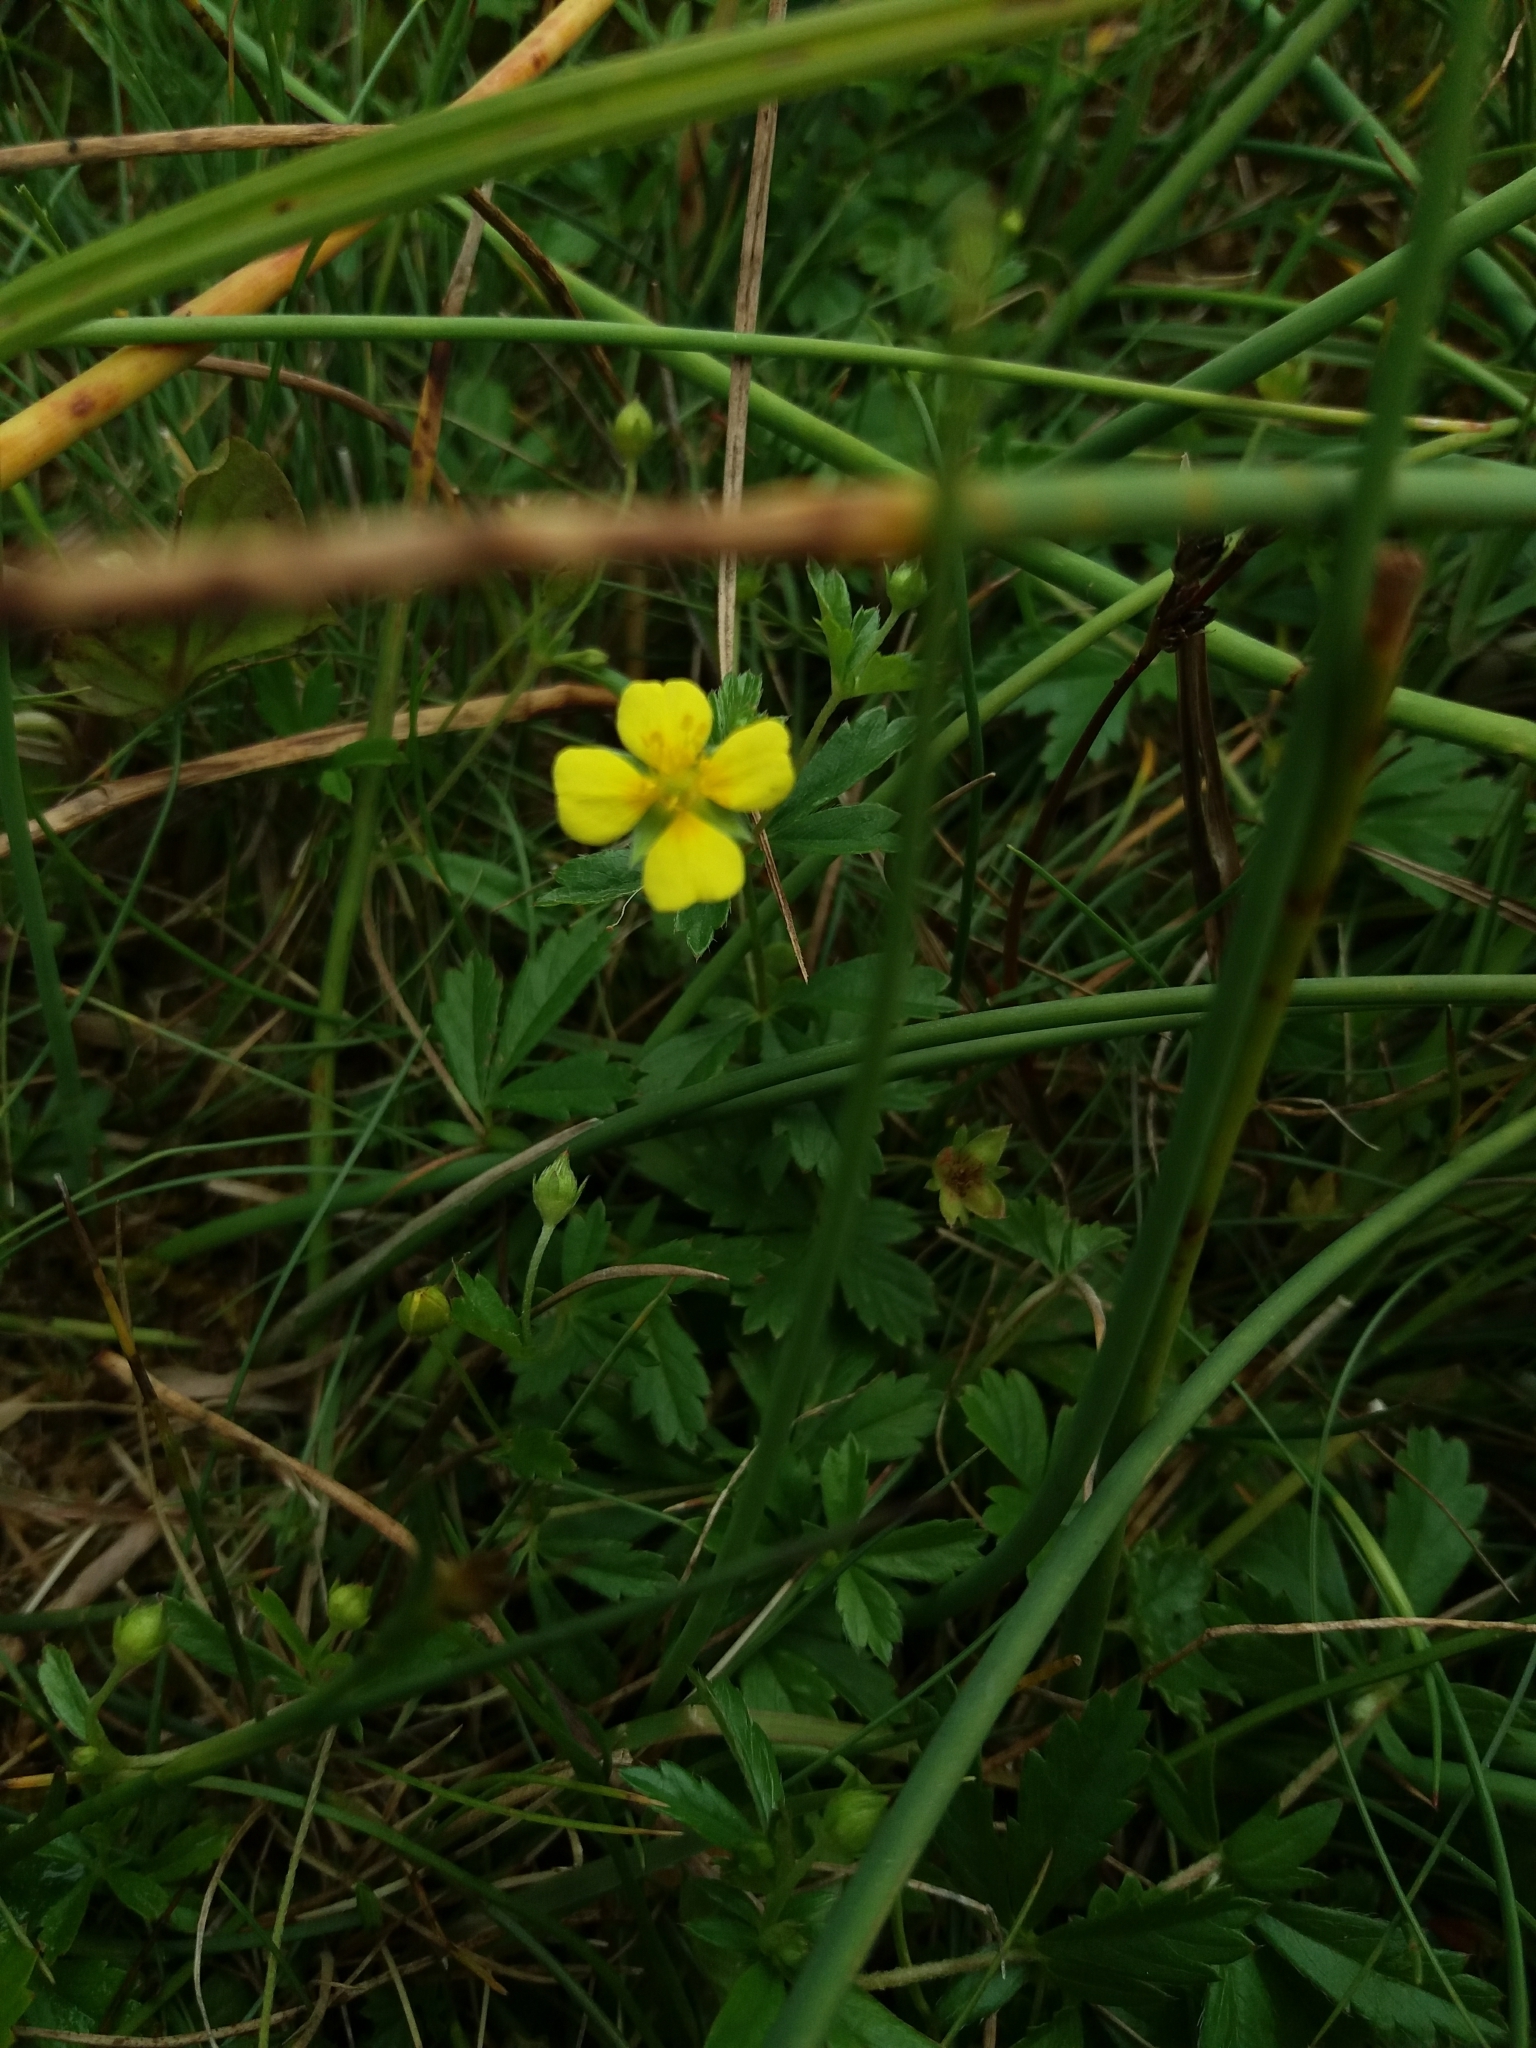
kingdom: Plantae
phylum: Tracheophyta
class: Magnoliopsida
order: Rosales
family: Rosaceae
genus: Potentilla
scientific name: Potentilla erecta
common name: Tormentil
